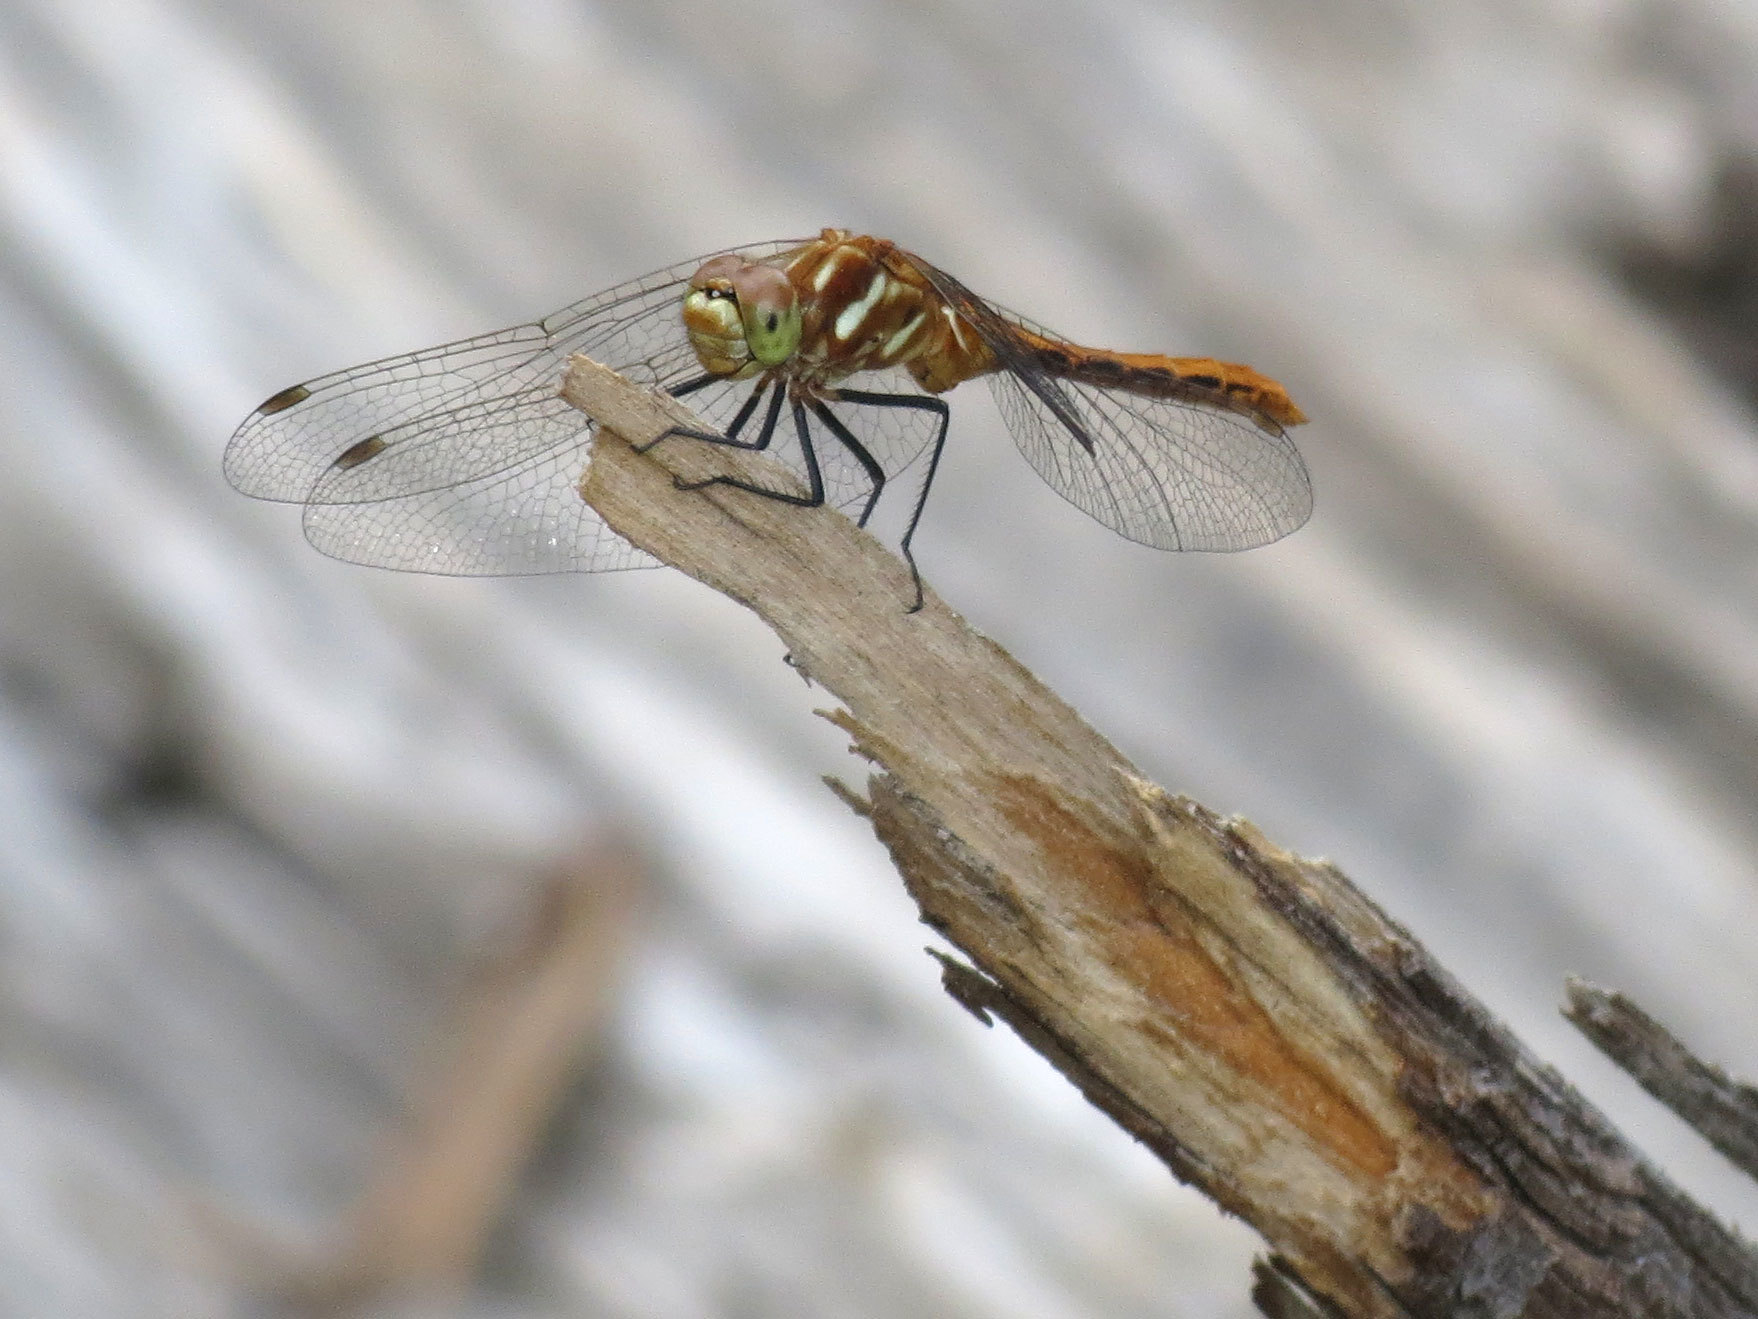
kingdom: Animalia
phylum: Arthropoda
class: Insecta
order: Odonata
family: Libellulidae
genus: Sympetrum
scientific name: Sympetrum pallipes
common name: Striped meadowhawk
